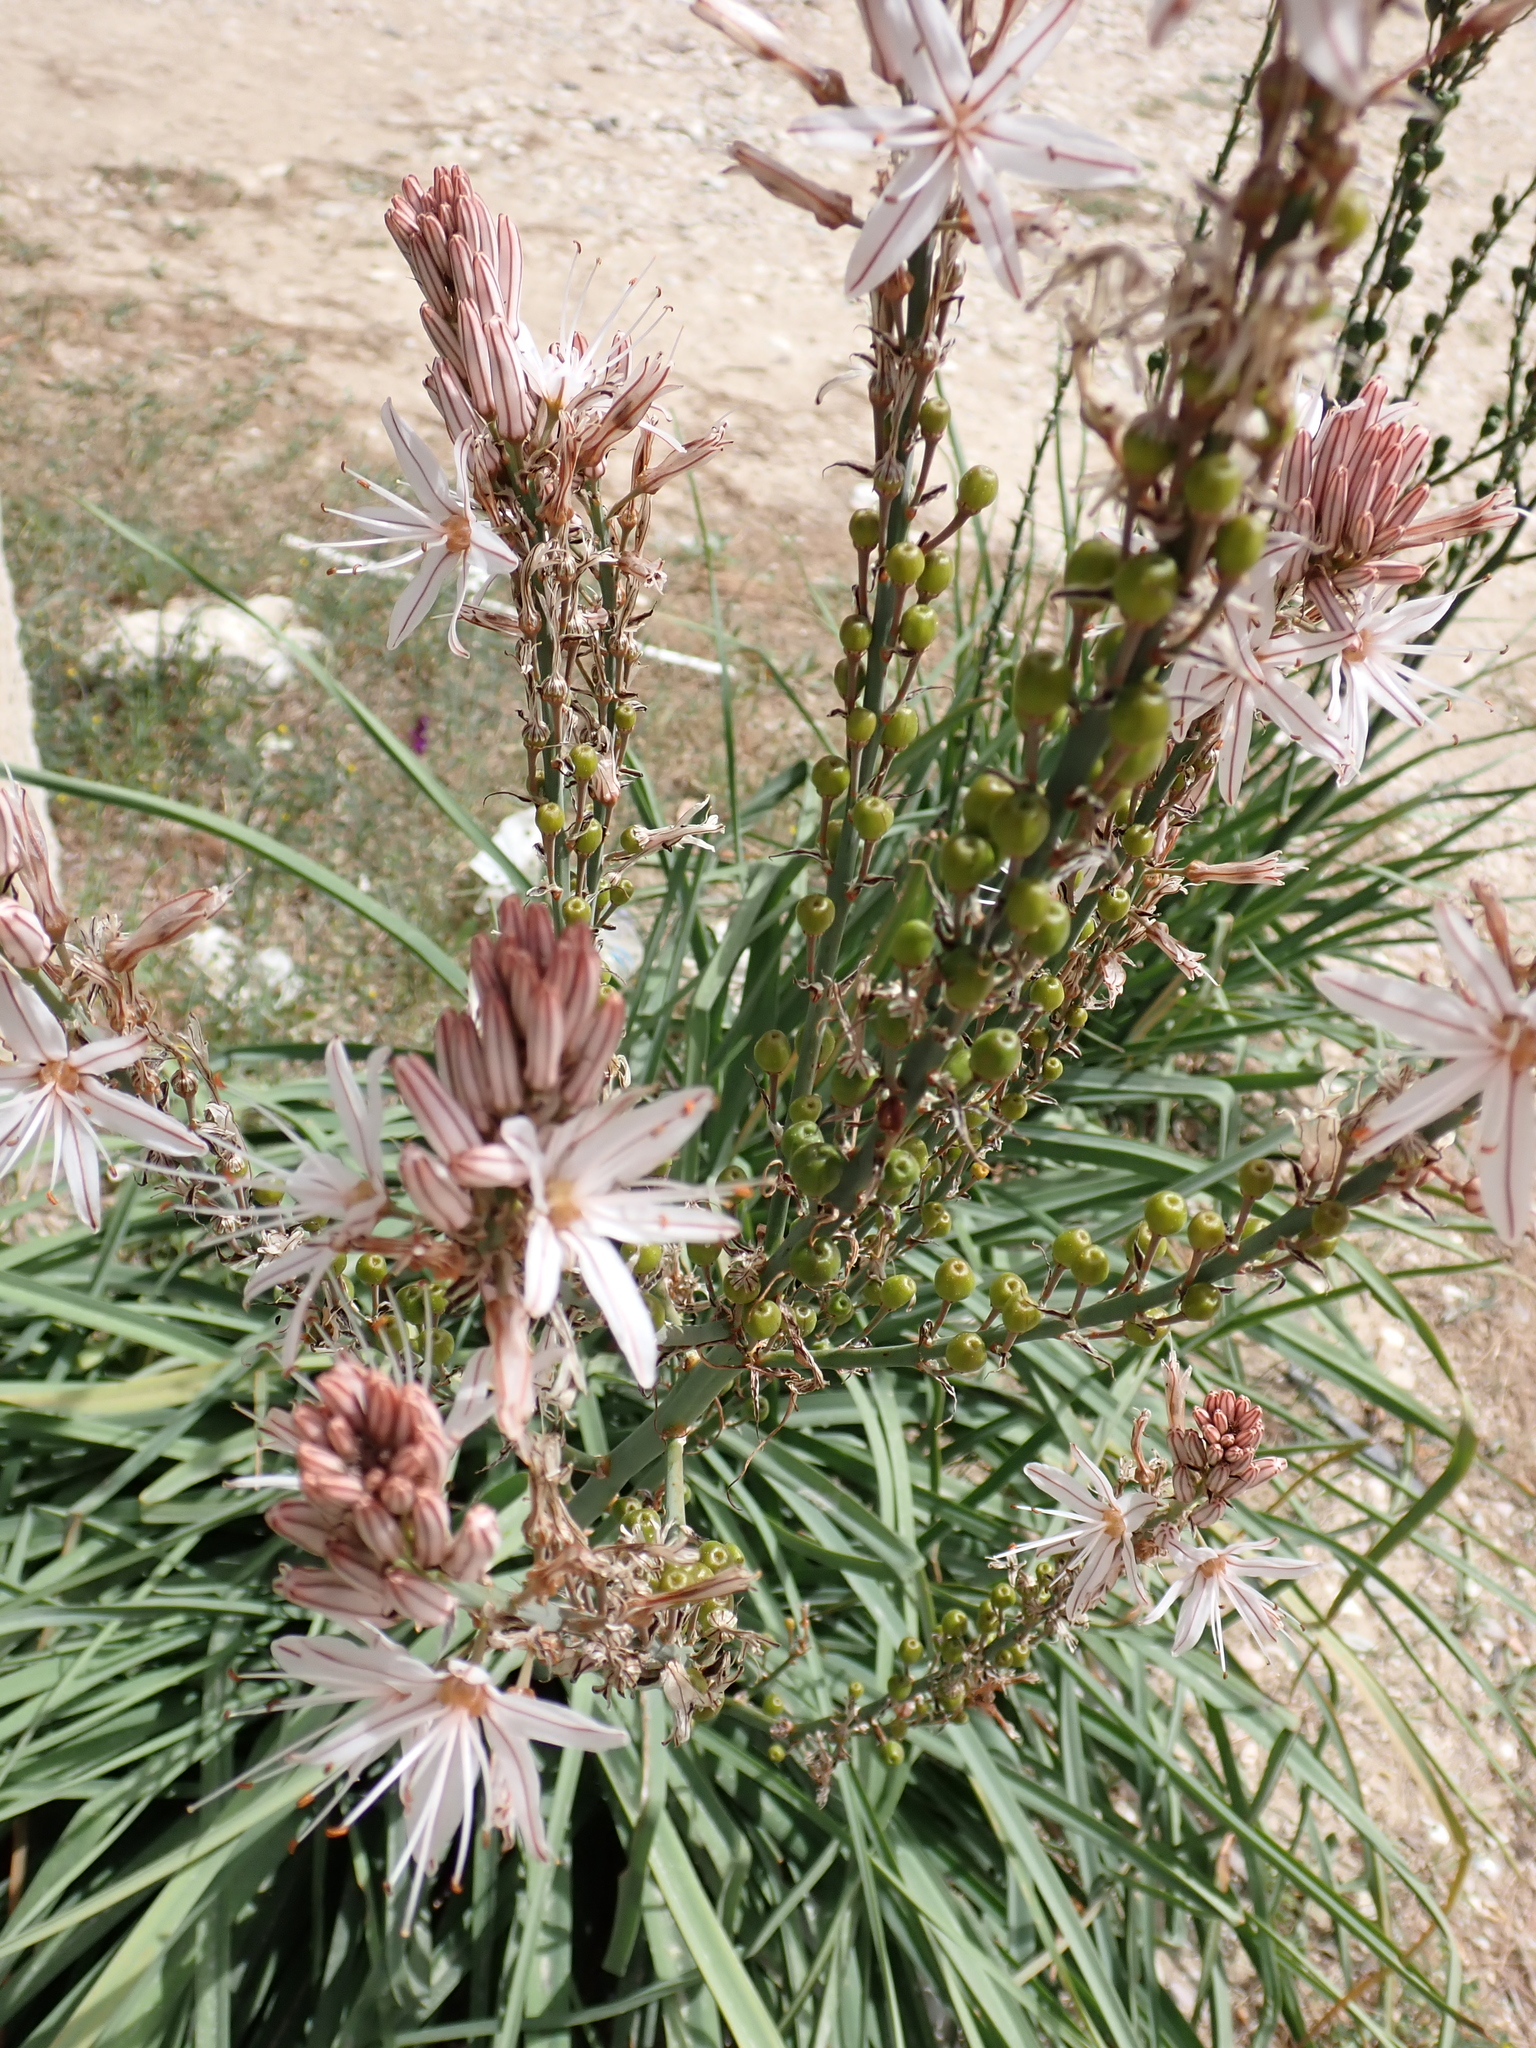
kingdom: Plantae
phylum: Tracheophyta
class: Liliopsida
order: Asparagales
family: Asphodelaceae
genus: Asphodelus
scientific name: Asphodelus ramosus
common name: Silverrod
